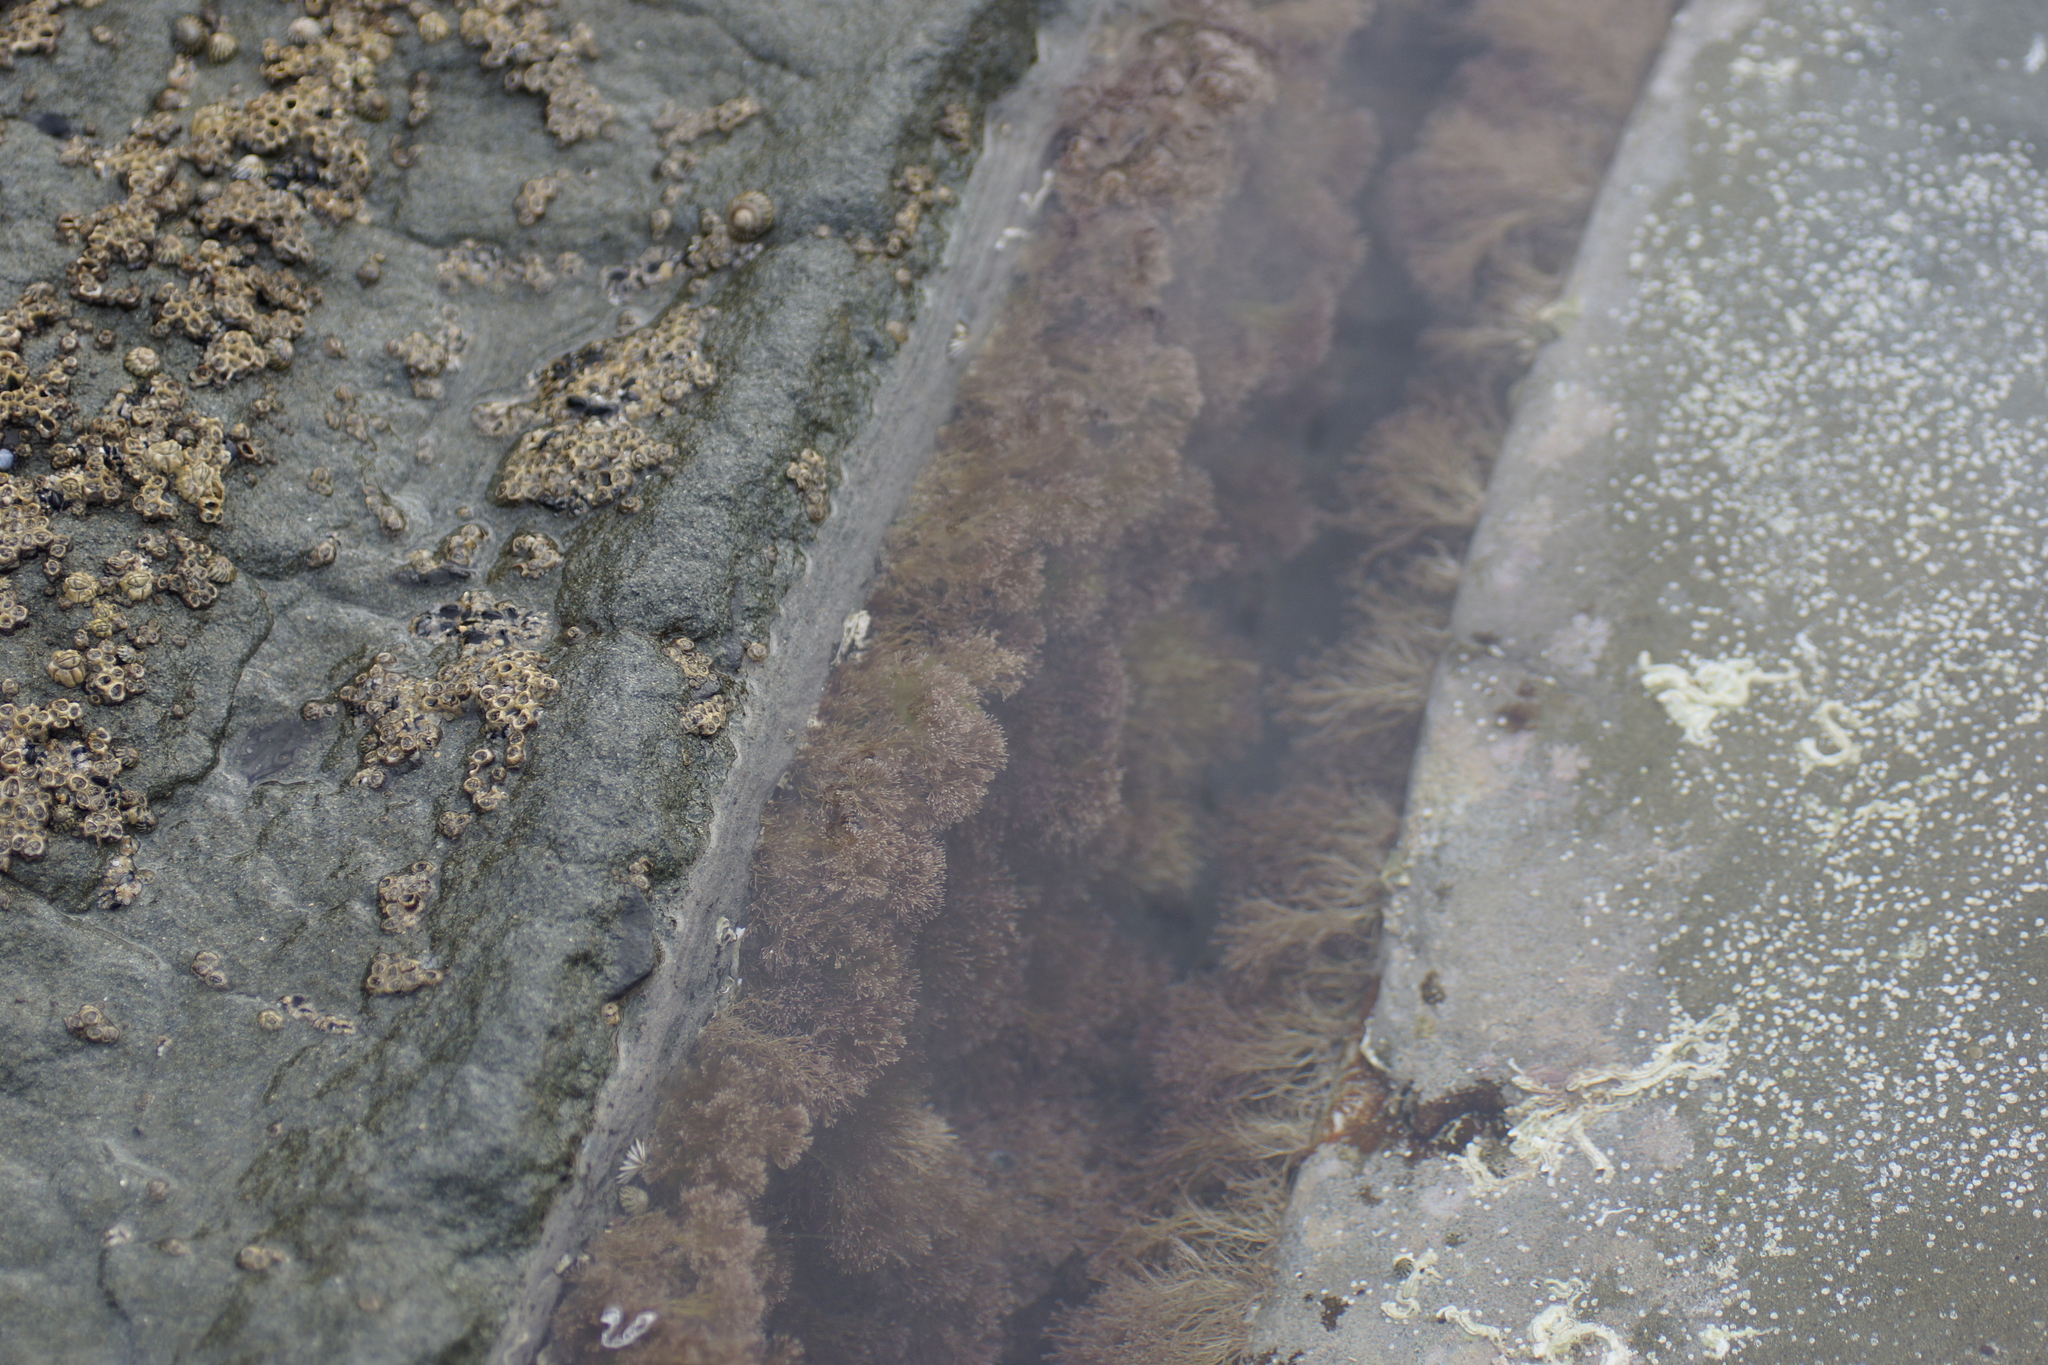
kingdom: Plantae
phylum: Rhodophyta
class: Florideophyceae
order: Corallinales
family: Corallinaceae
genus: Corallina
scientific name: Corallina officinalis
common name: Coral weed
